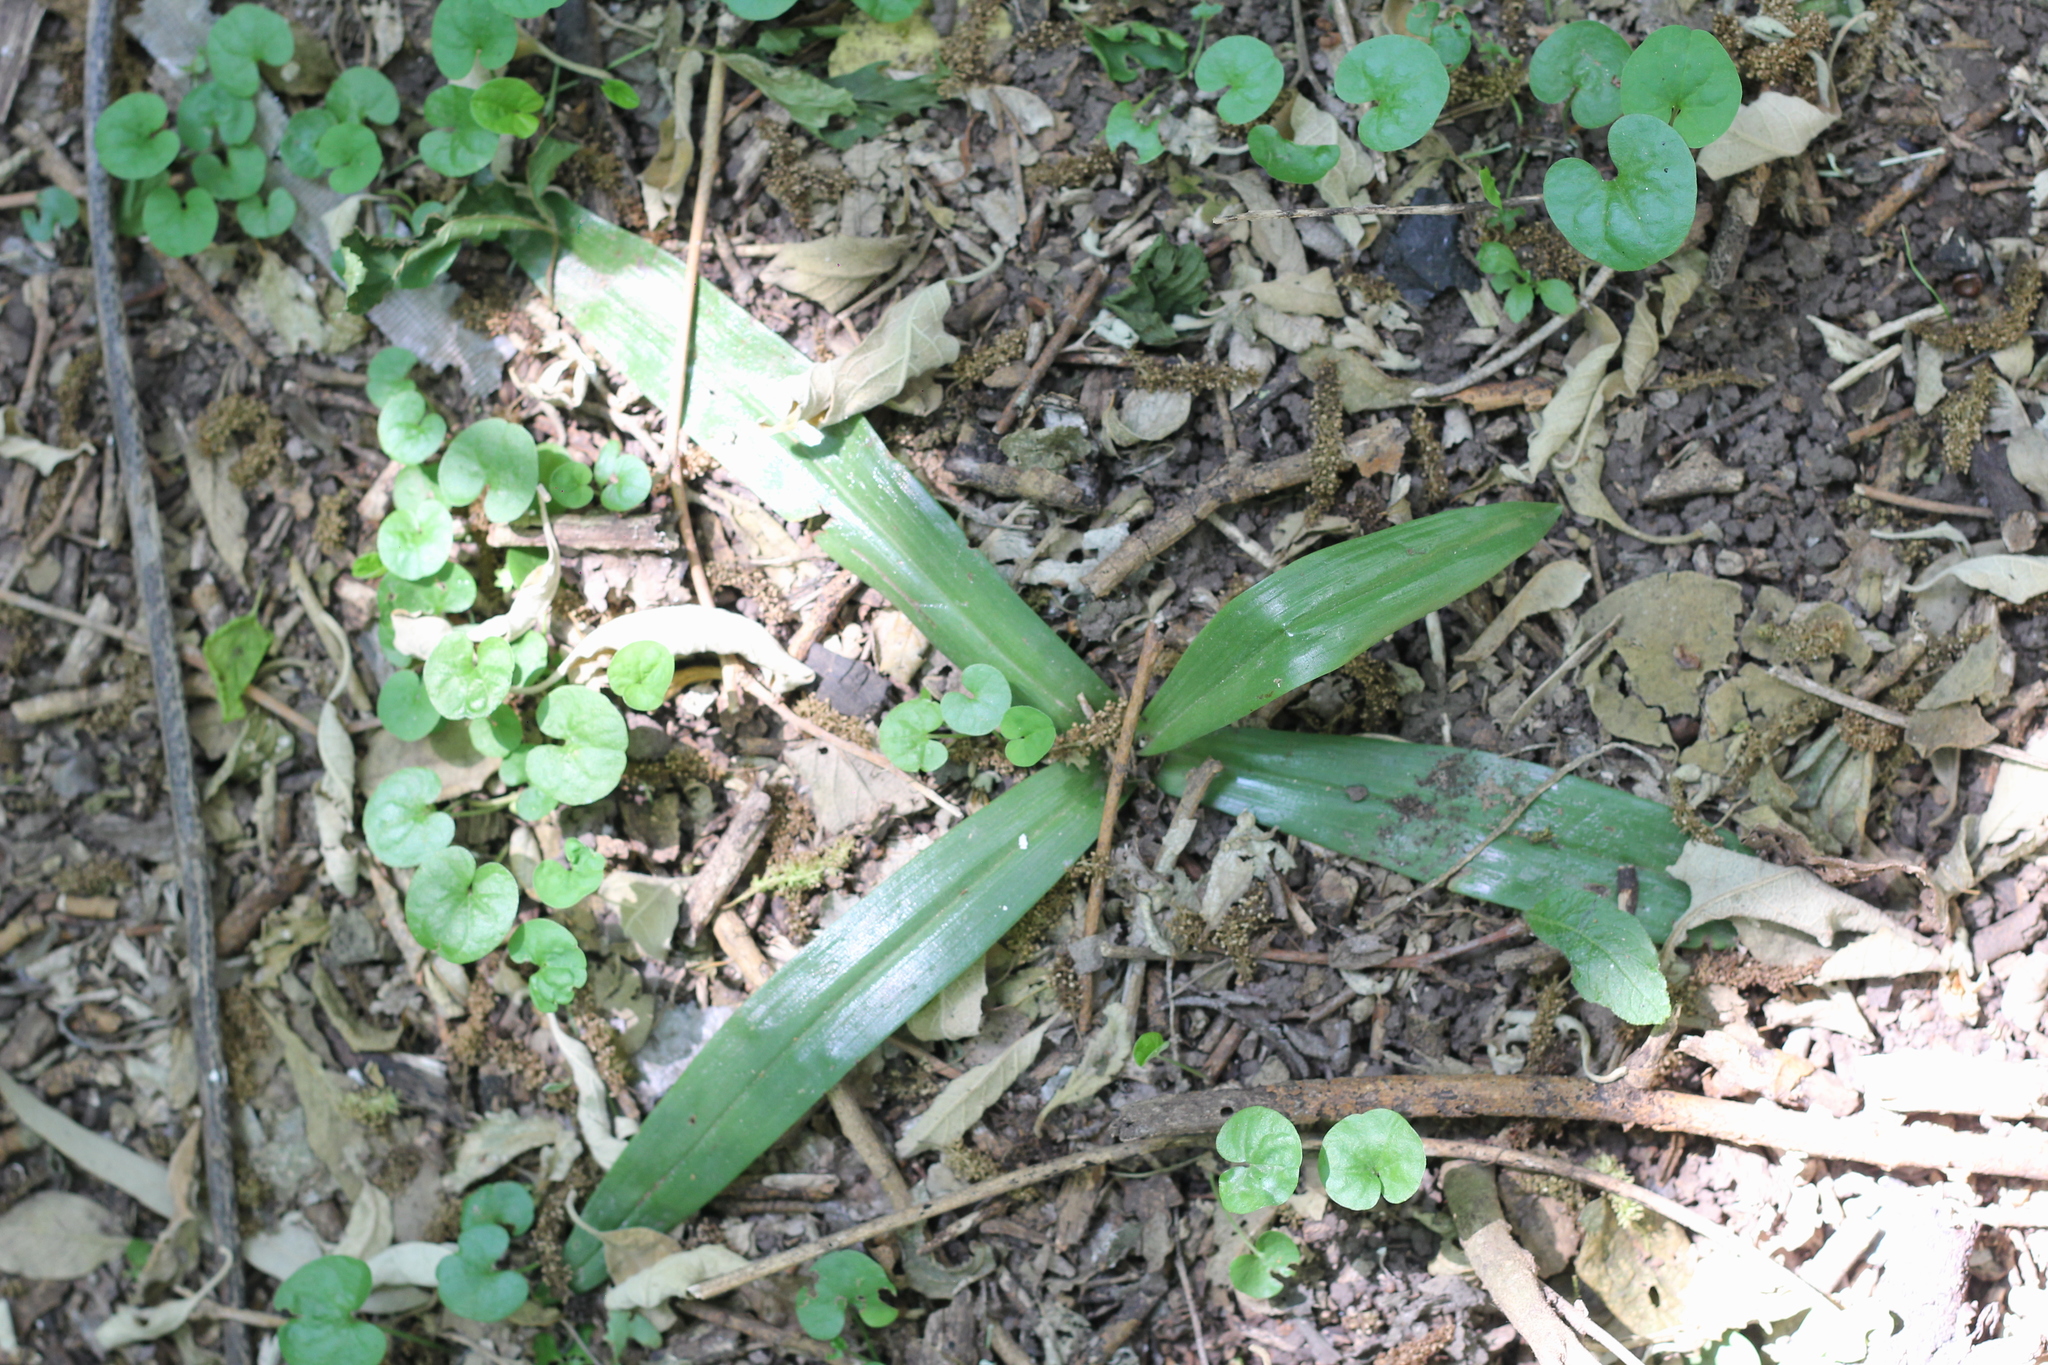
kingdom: Plantae
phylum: Tracheophyta
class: Liliopsida
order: Asparagales
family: Orchidaceae
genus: Chloraea
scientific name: Chloraea membranacea
